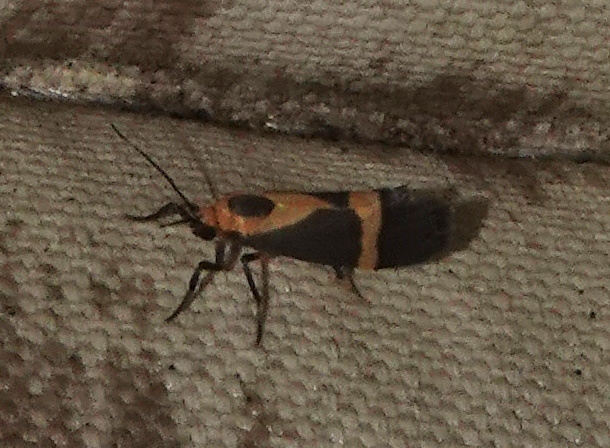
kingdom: Animalia
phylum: Arthropoda
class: Insecta
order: Lepidoptera
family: Erebidae
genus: Cisthene
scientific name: Cisthene tenuifascia
